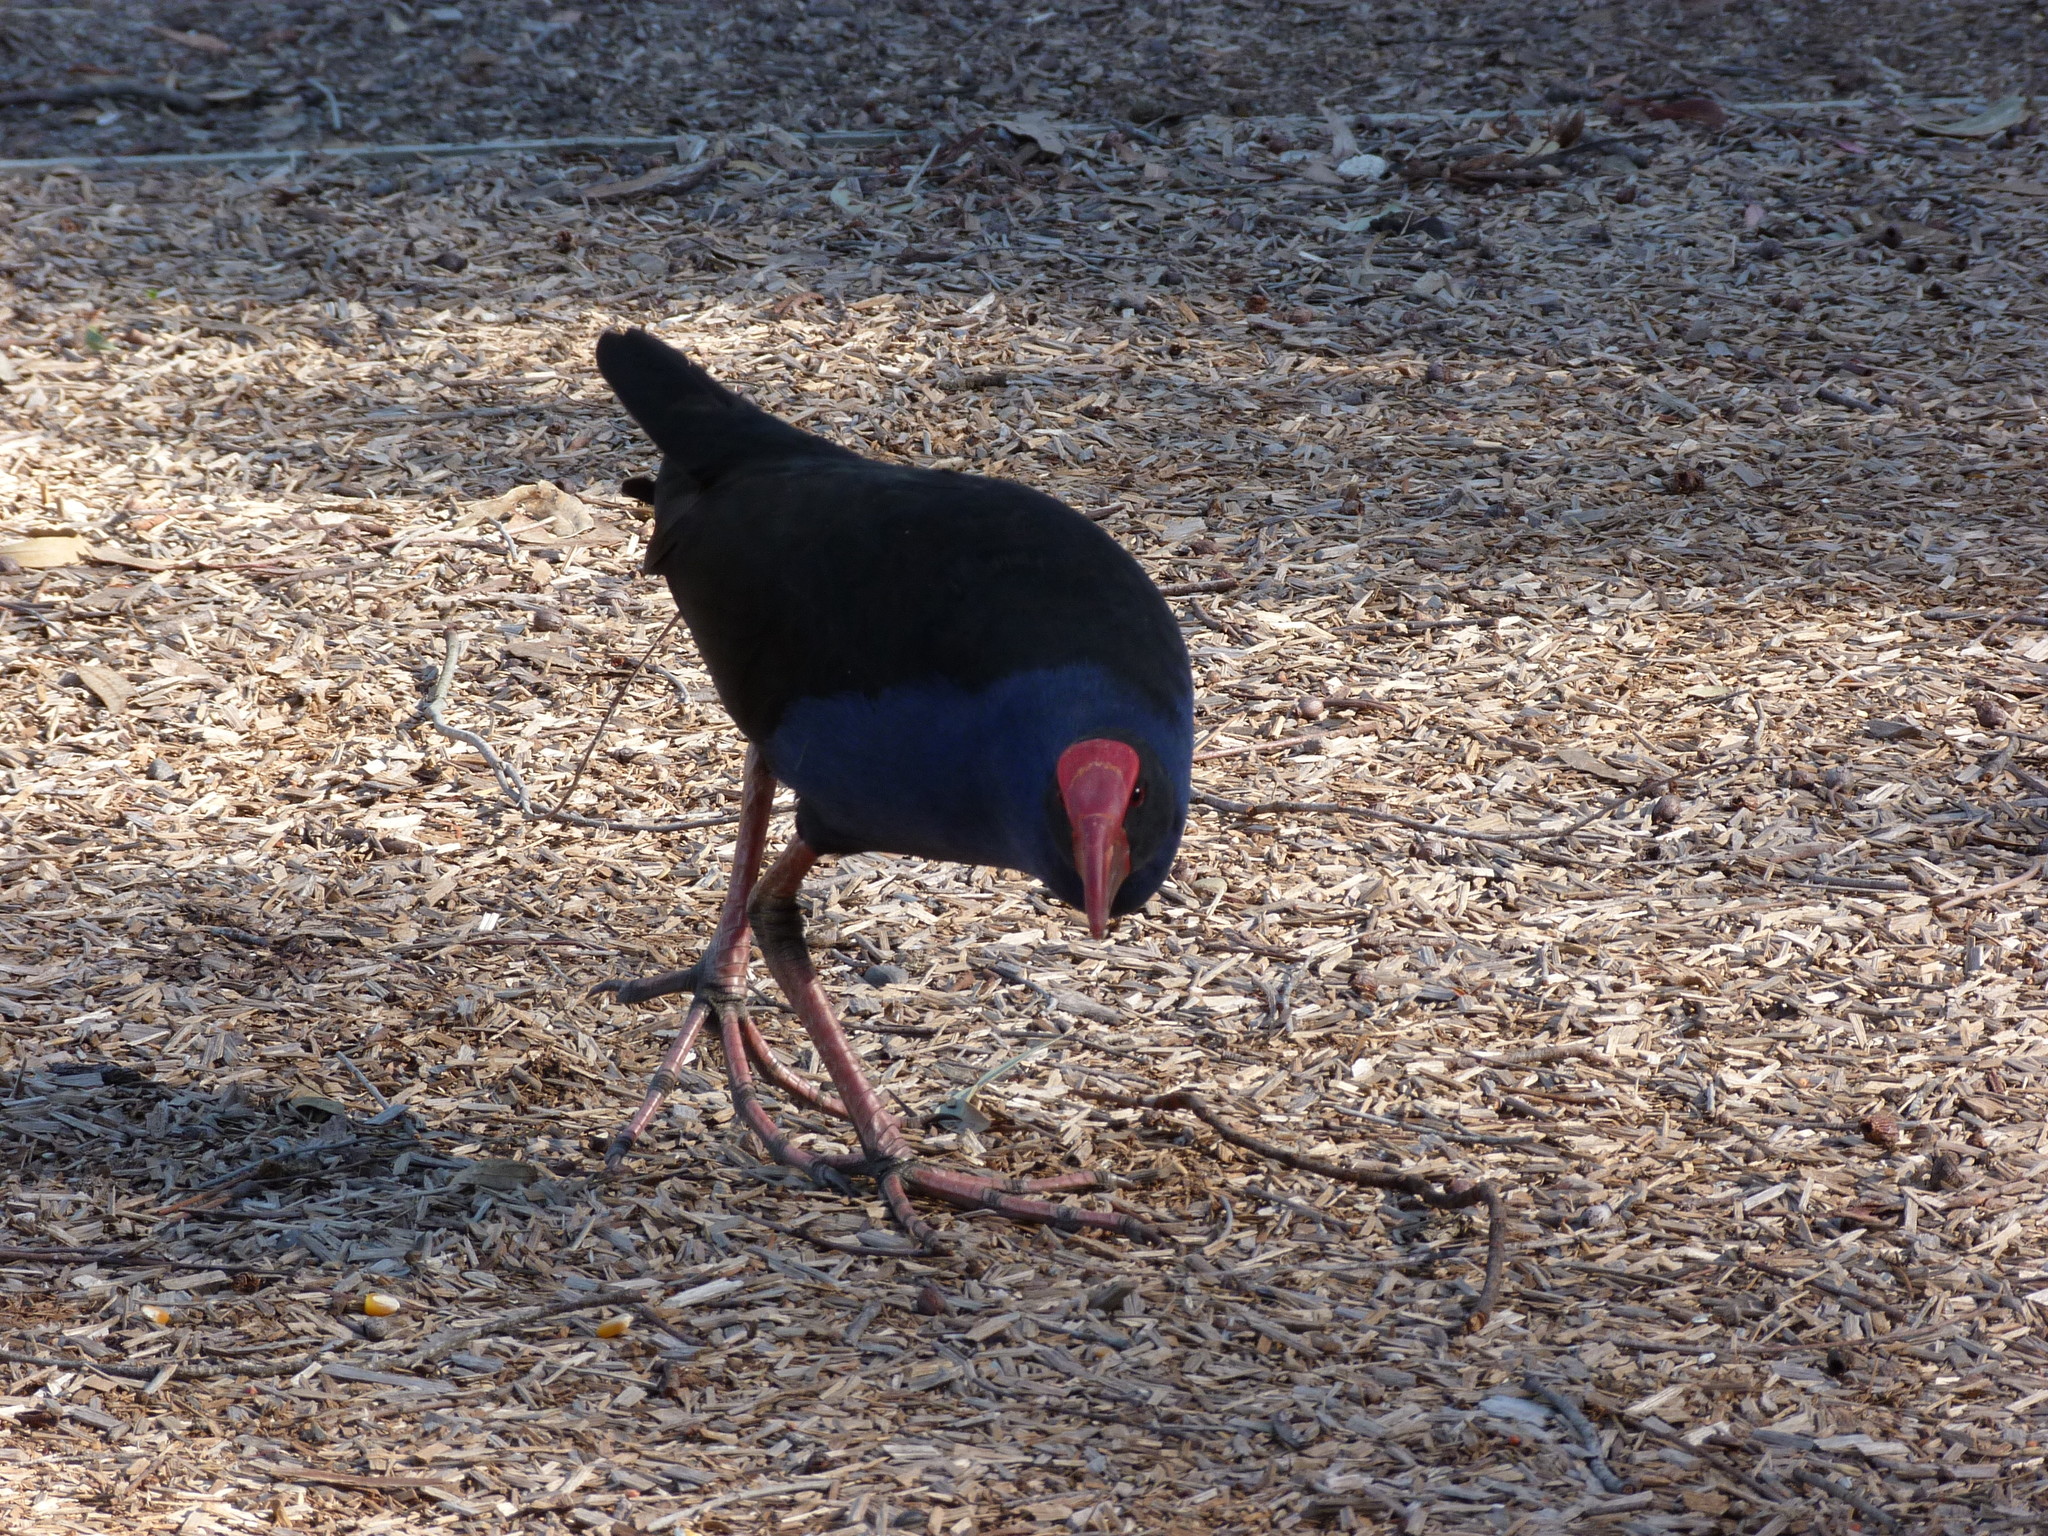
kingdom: Animalia
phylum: Chordata
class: Aves
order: Gruiformes
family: Rallidae
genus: Porphyrio
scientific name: Porphyrio melanotus
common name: Australasian swamphen
